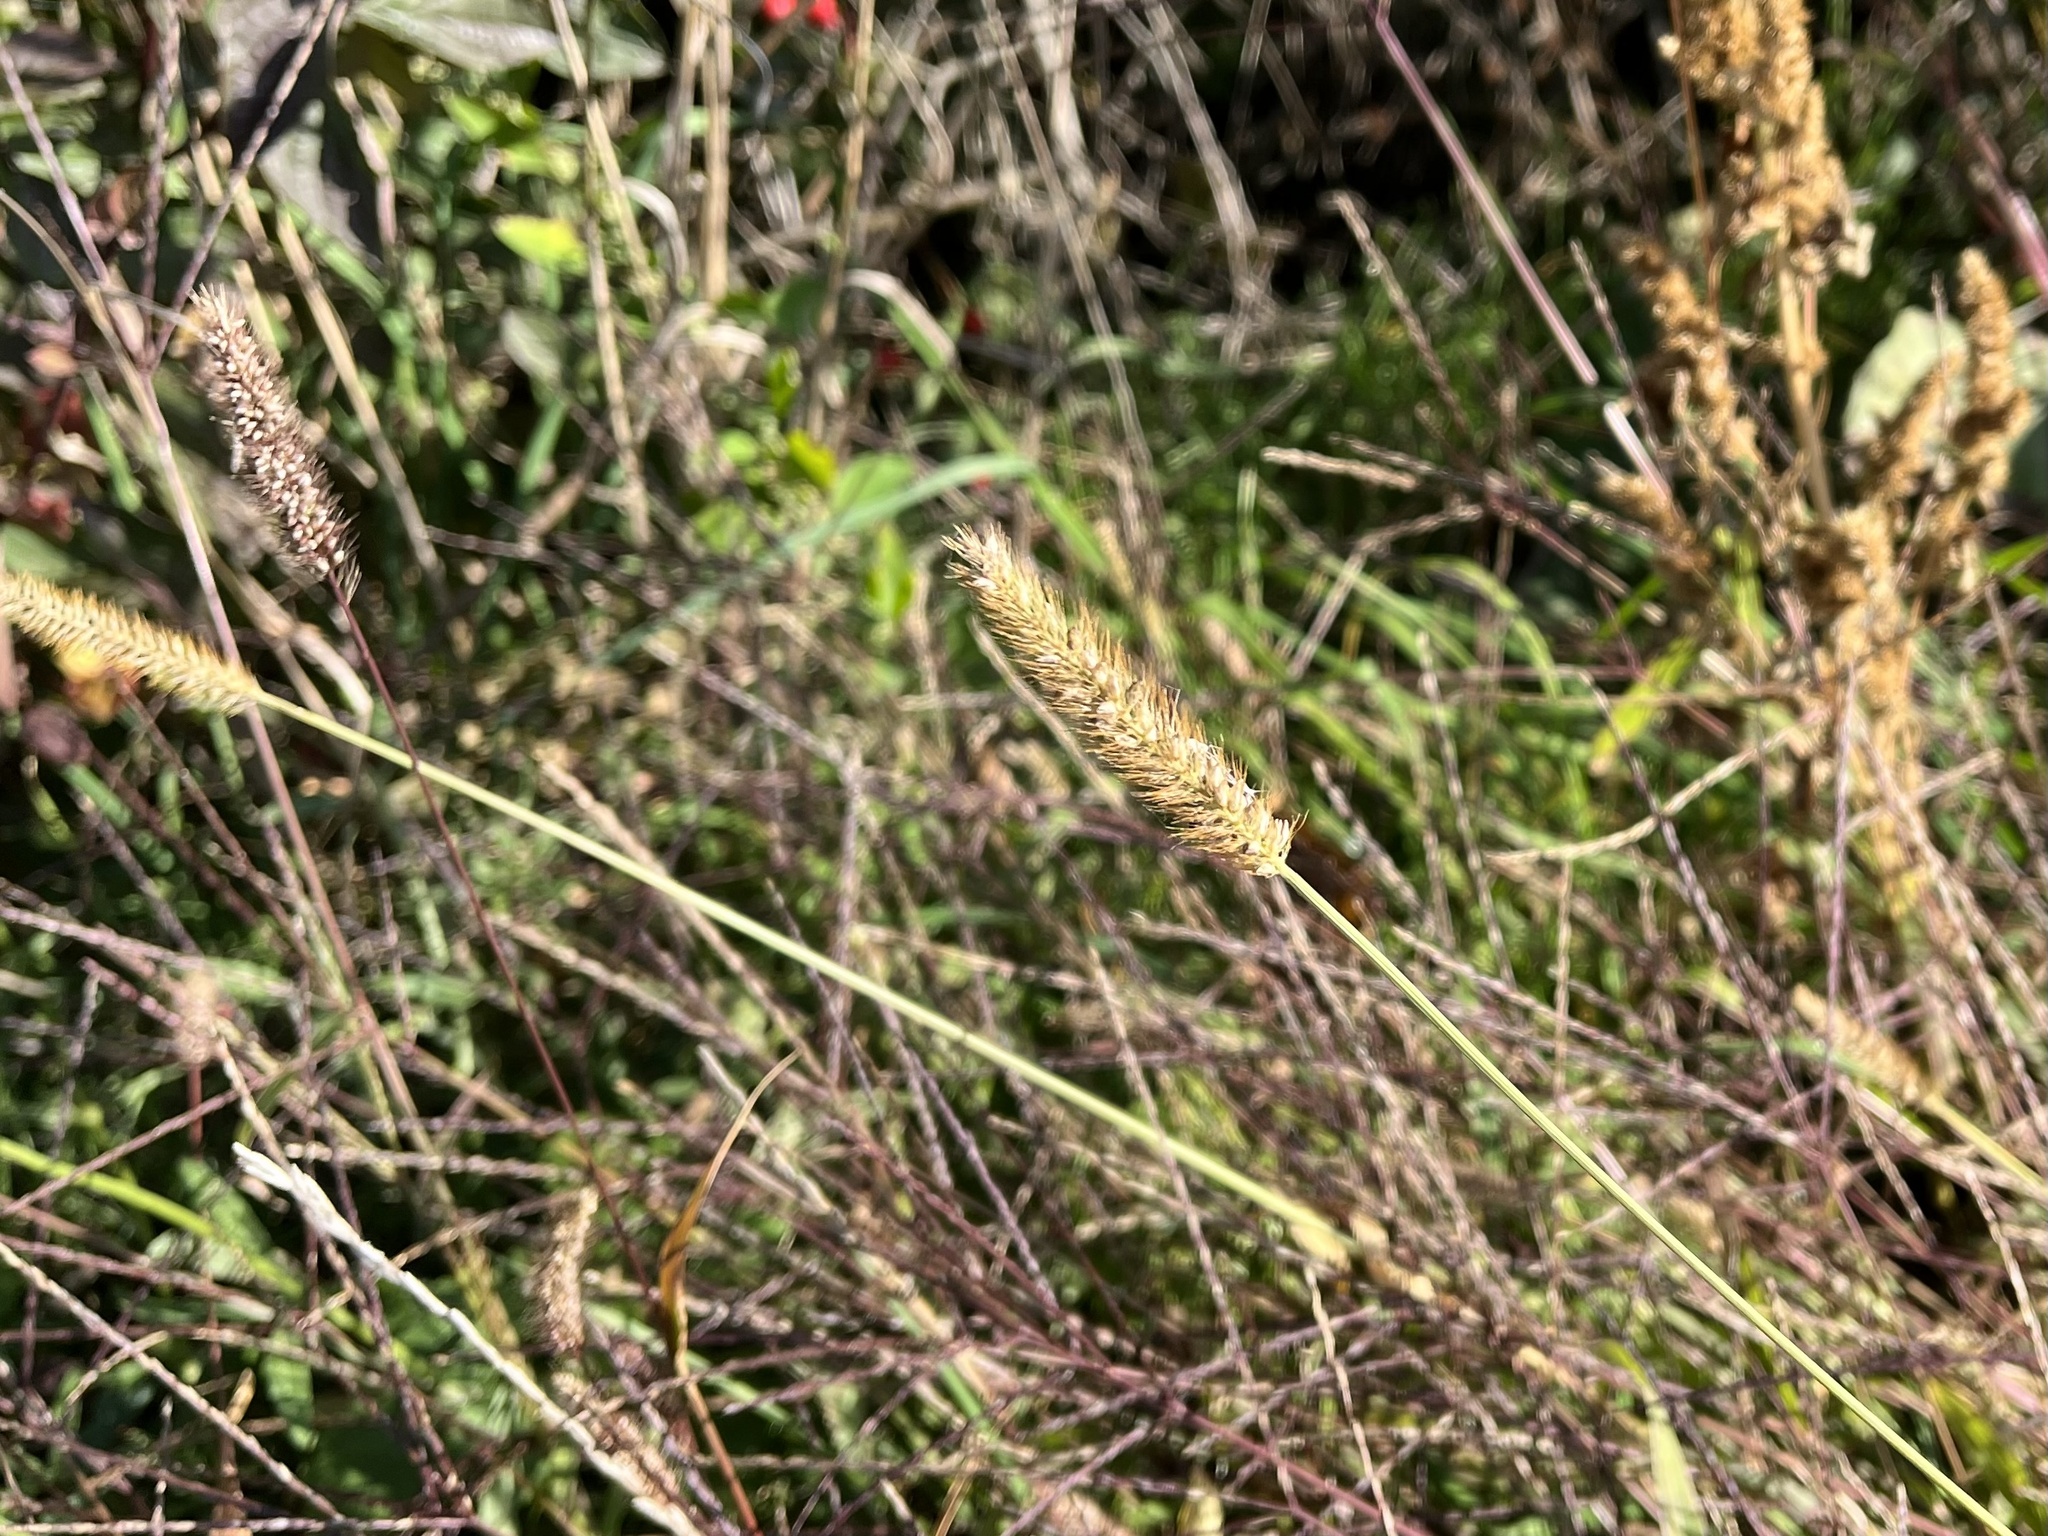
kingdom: Plantae
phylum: Tracheophyta
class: Liliopsida
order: Poales
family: Poaceae
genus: Setaria
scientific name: Setaria pumila
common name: Yellow bristle-grass
